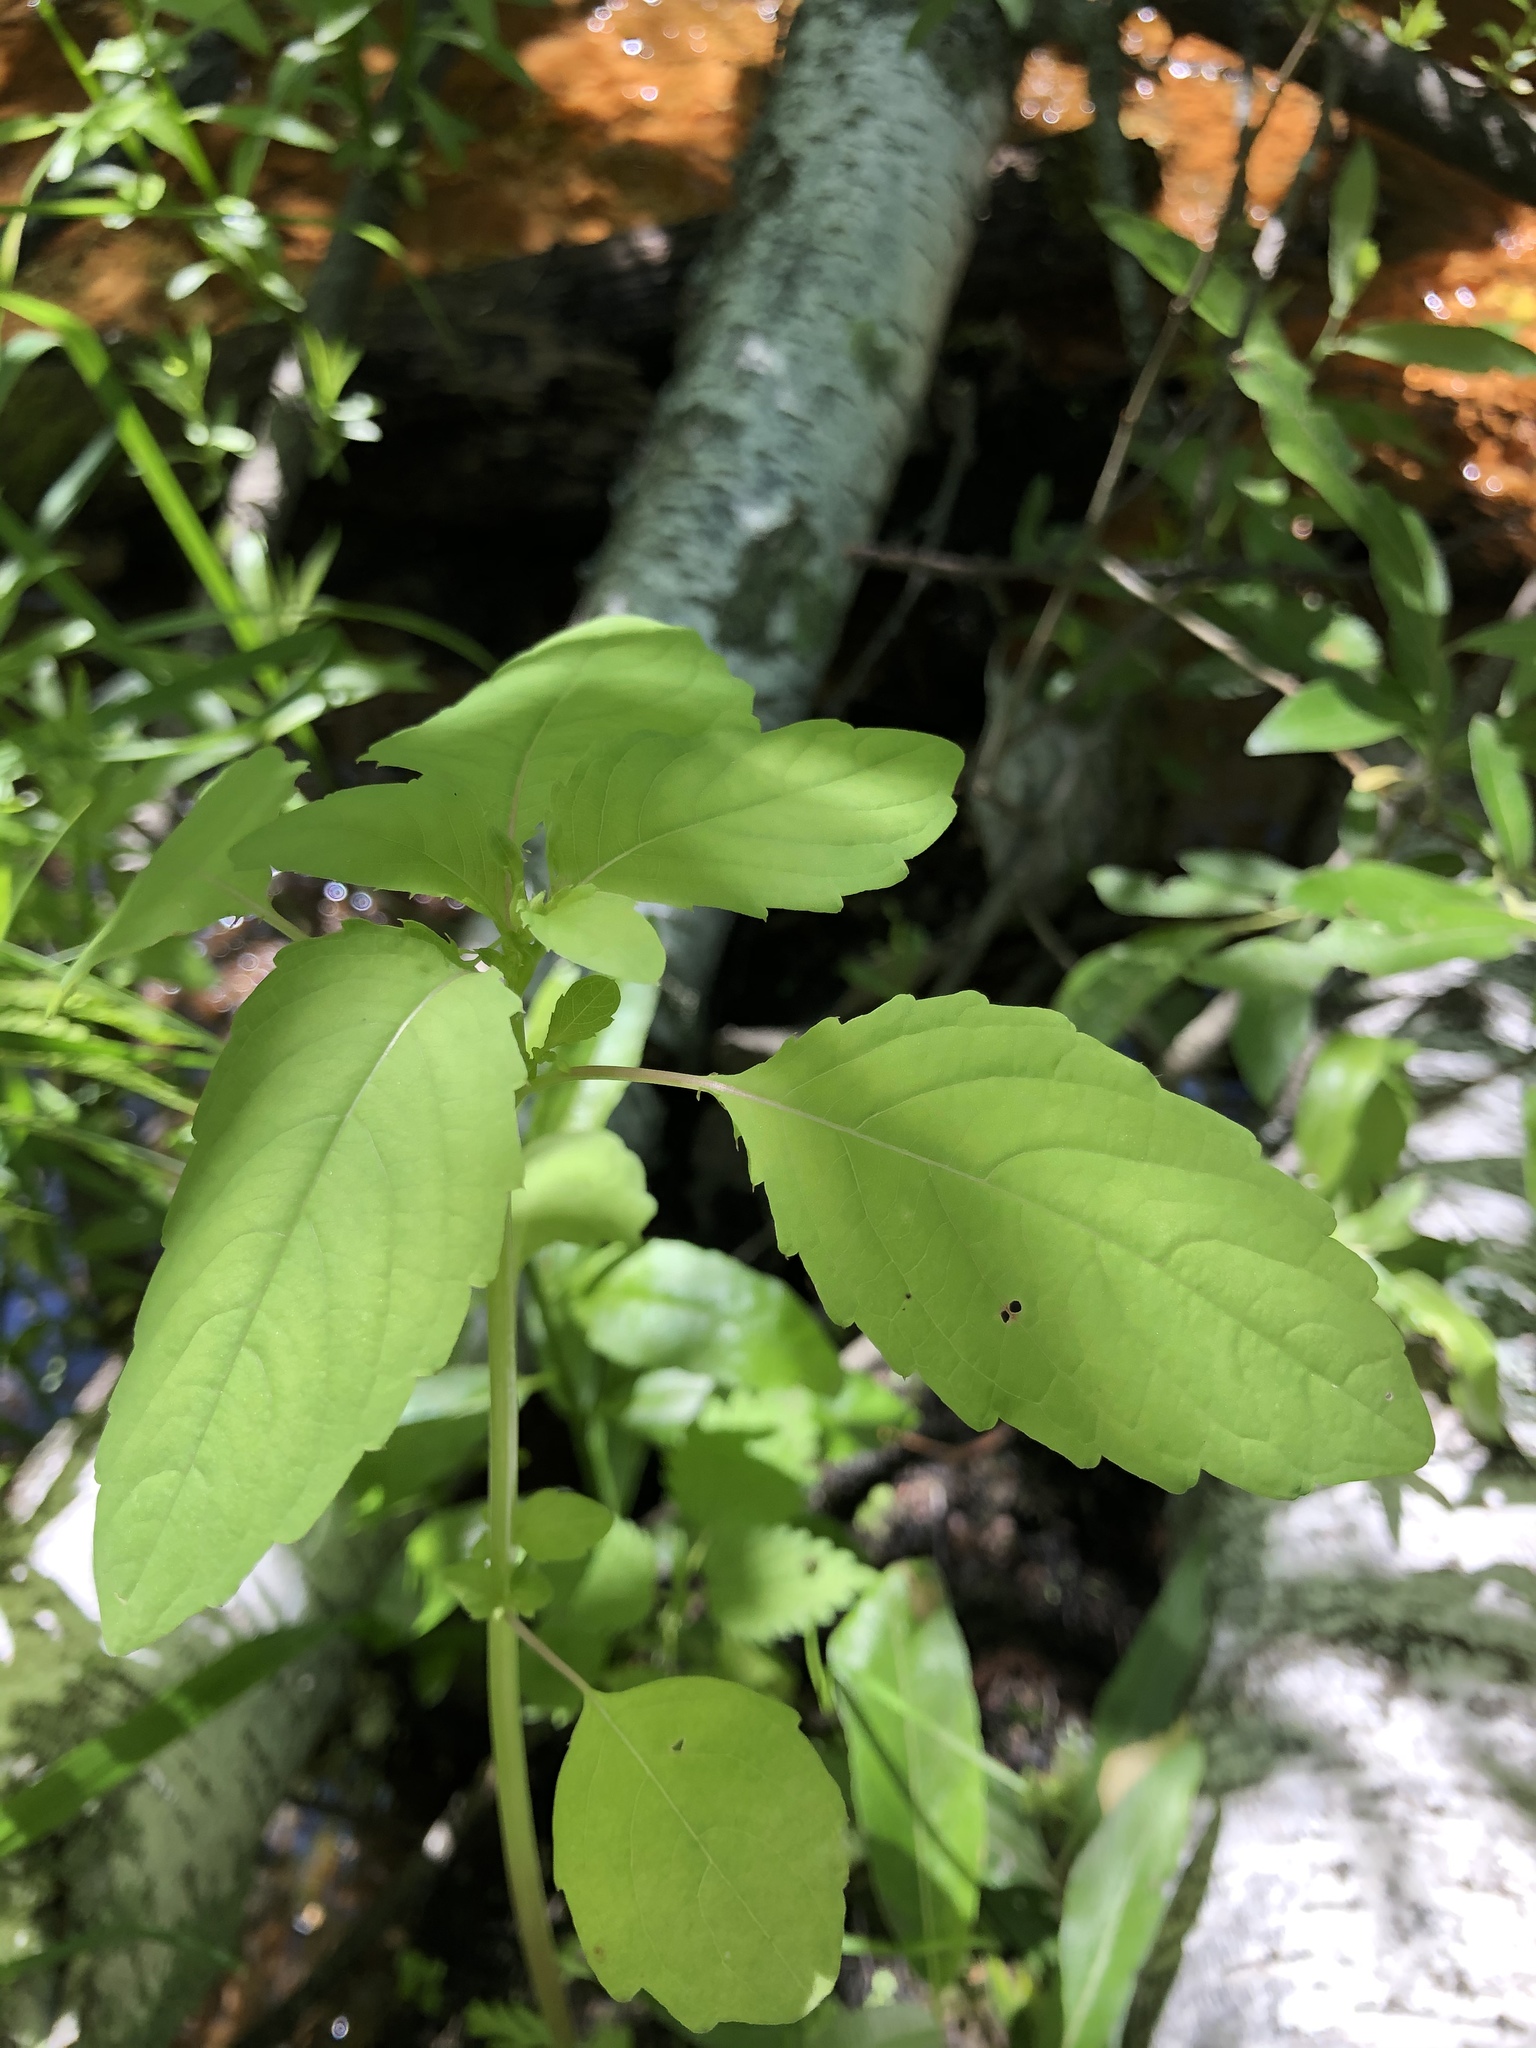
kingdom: Plantae
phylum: Tracheophyta
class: Magnoliopsida
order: Ericales
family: Balsaminaceae
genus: Impatiens
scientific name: Impatiens noli-tangere
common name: Touch-me-not balsam
